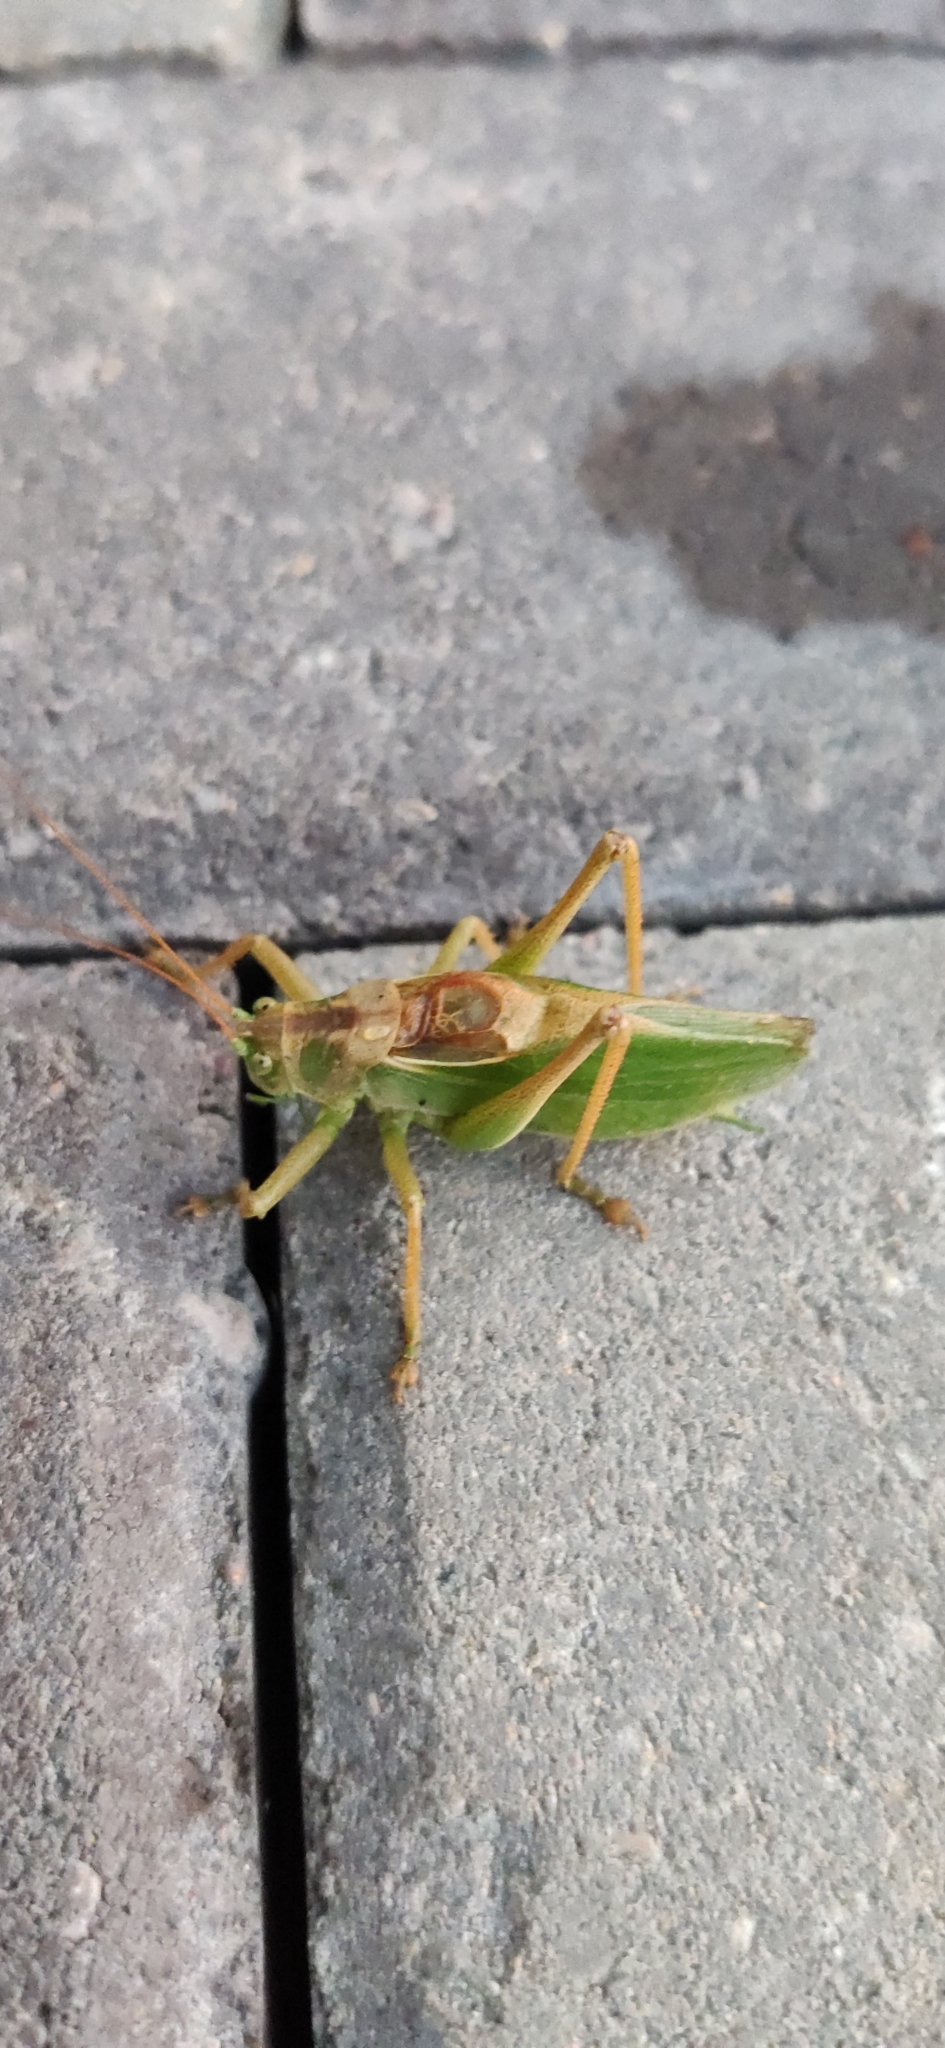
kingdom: Animalia
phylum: Arthropoda
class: Insecta
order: Orthoptera
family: Tettigoniidae
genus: Tettigonia
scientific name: Tettigonia cantans
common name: Upland green bush-cricket
